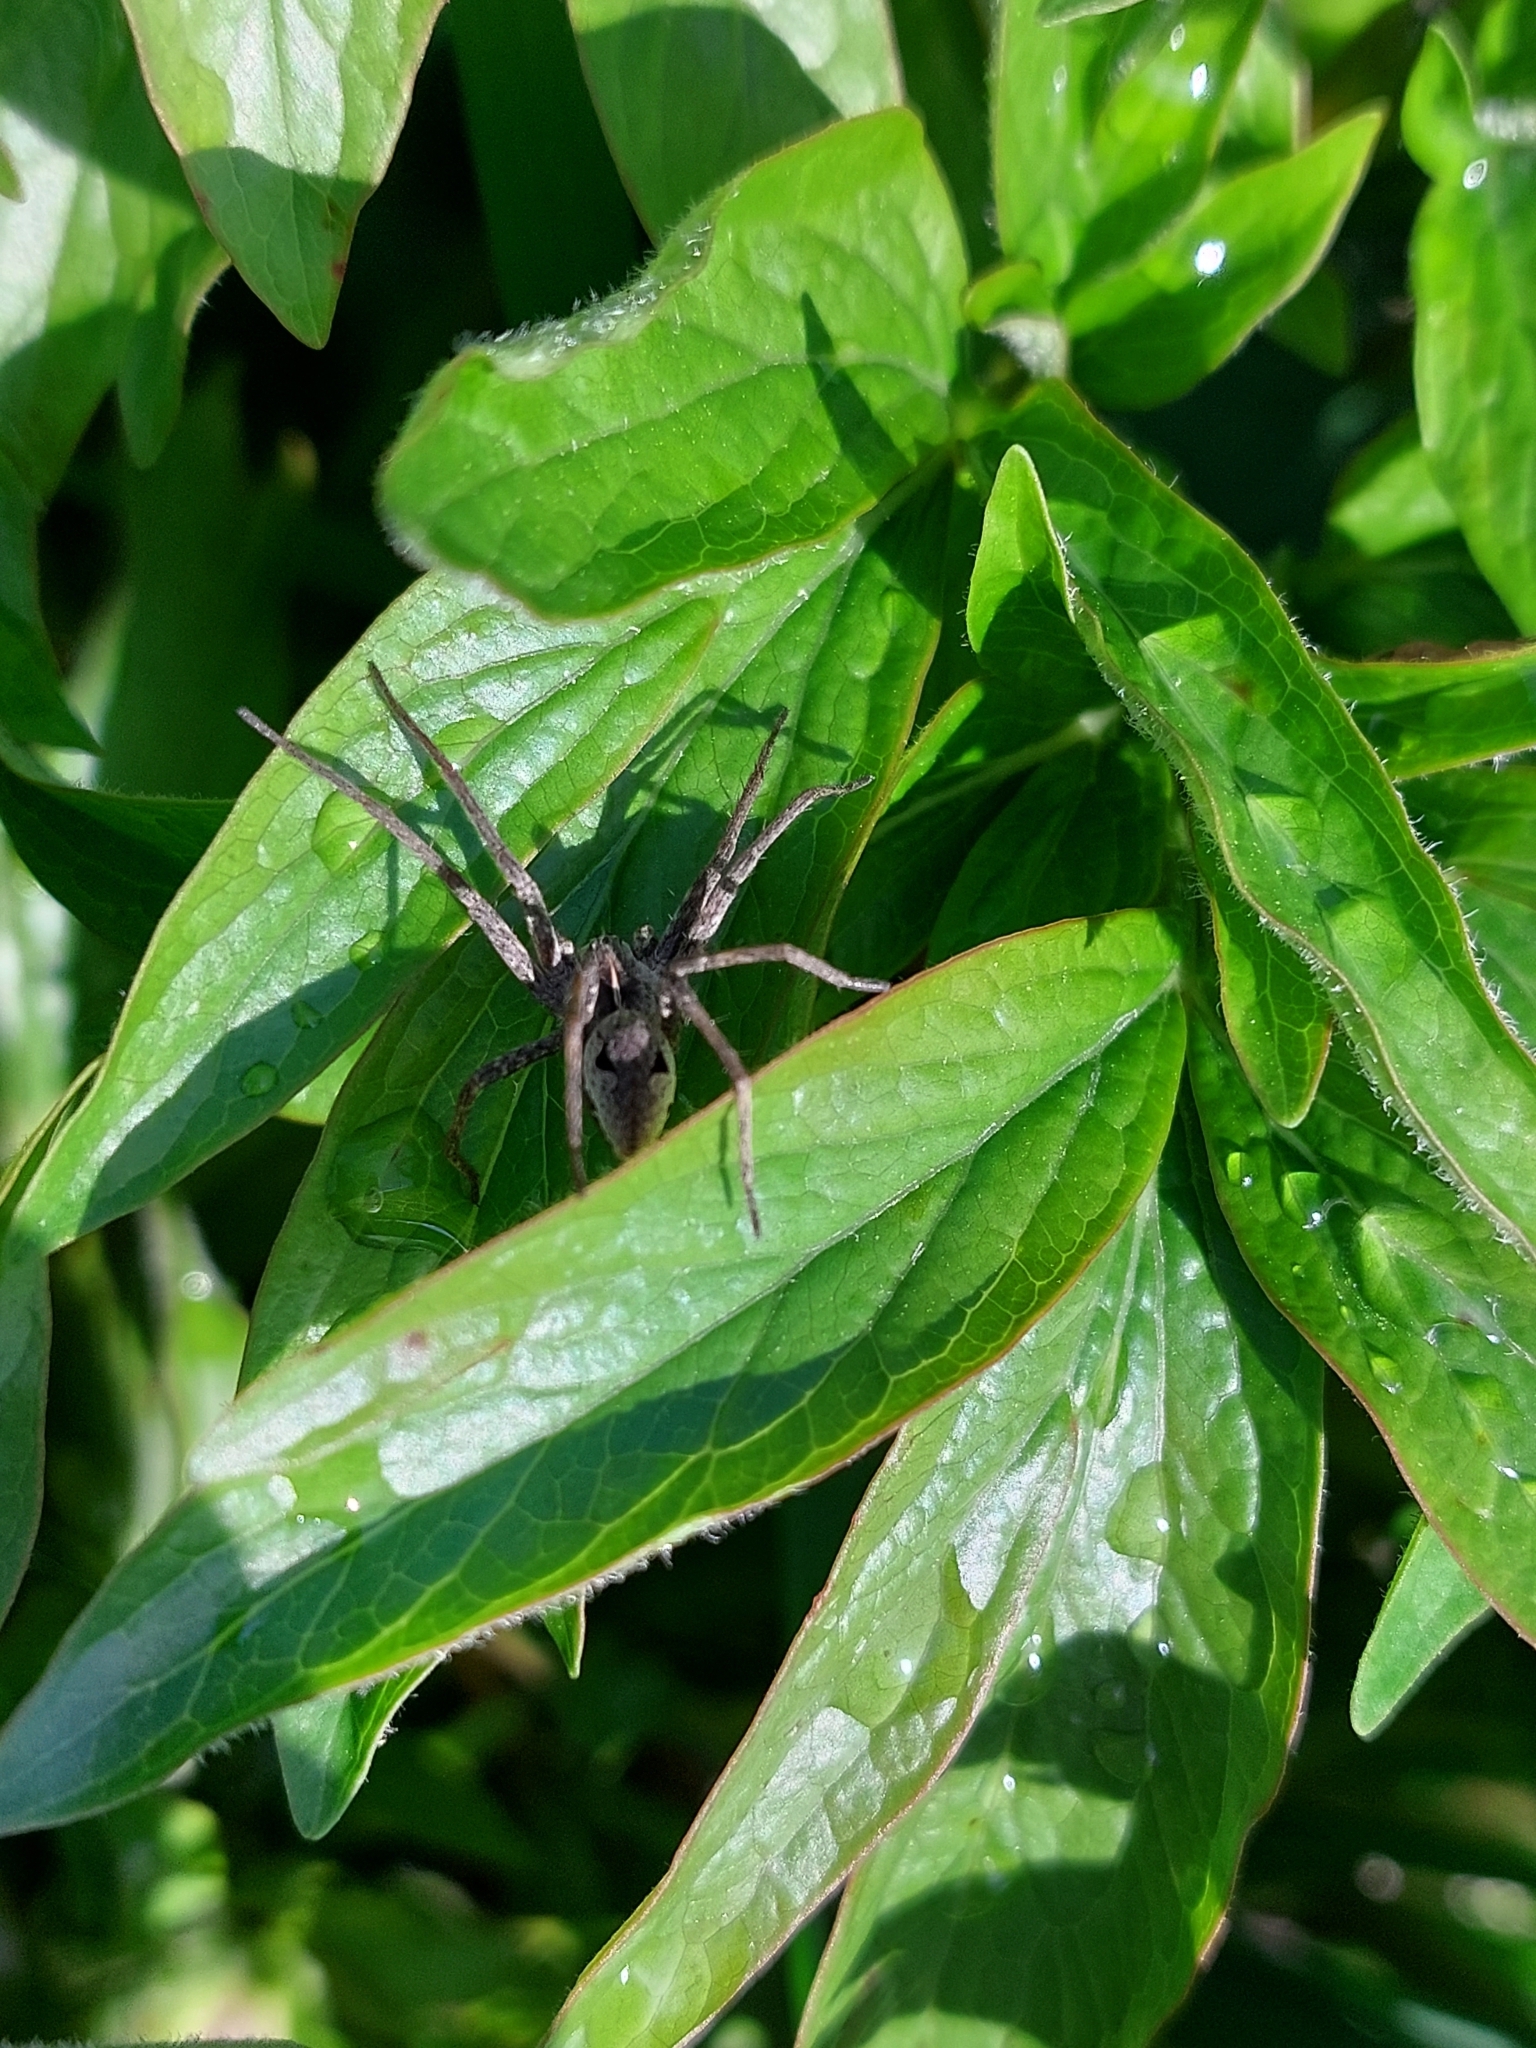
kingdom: Animalia
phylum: Arthropoda
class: Arachnida
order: Araneae
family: Pisauridae
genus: Pisaura
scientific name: Pisaura
